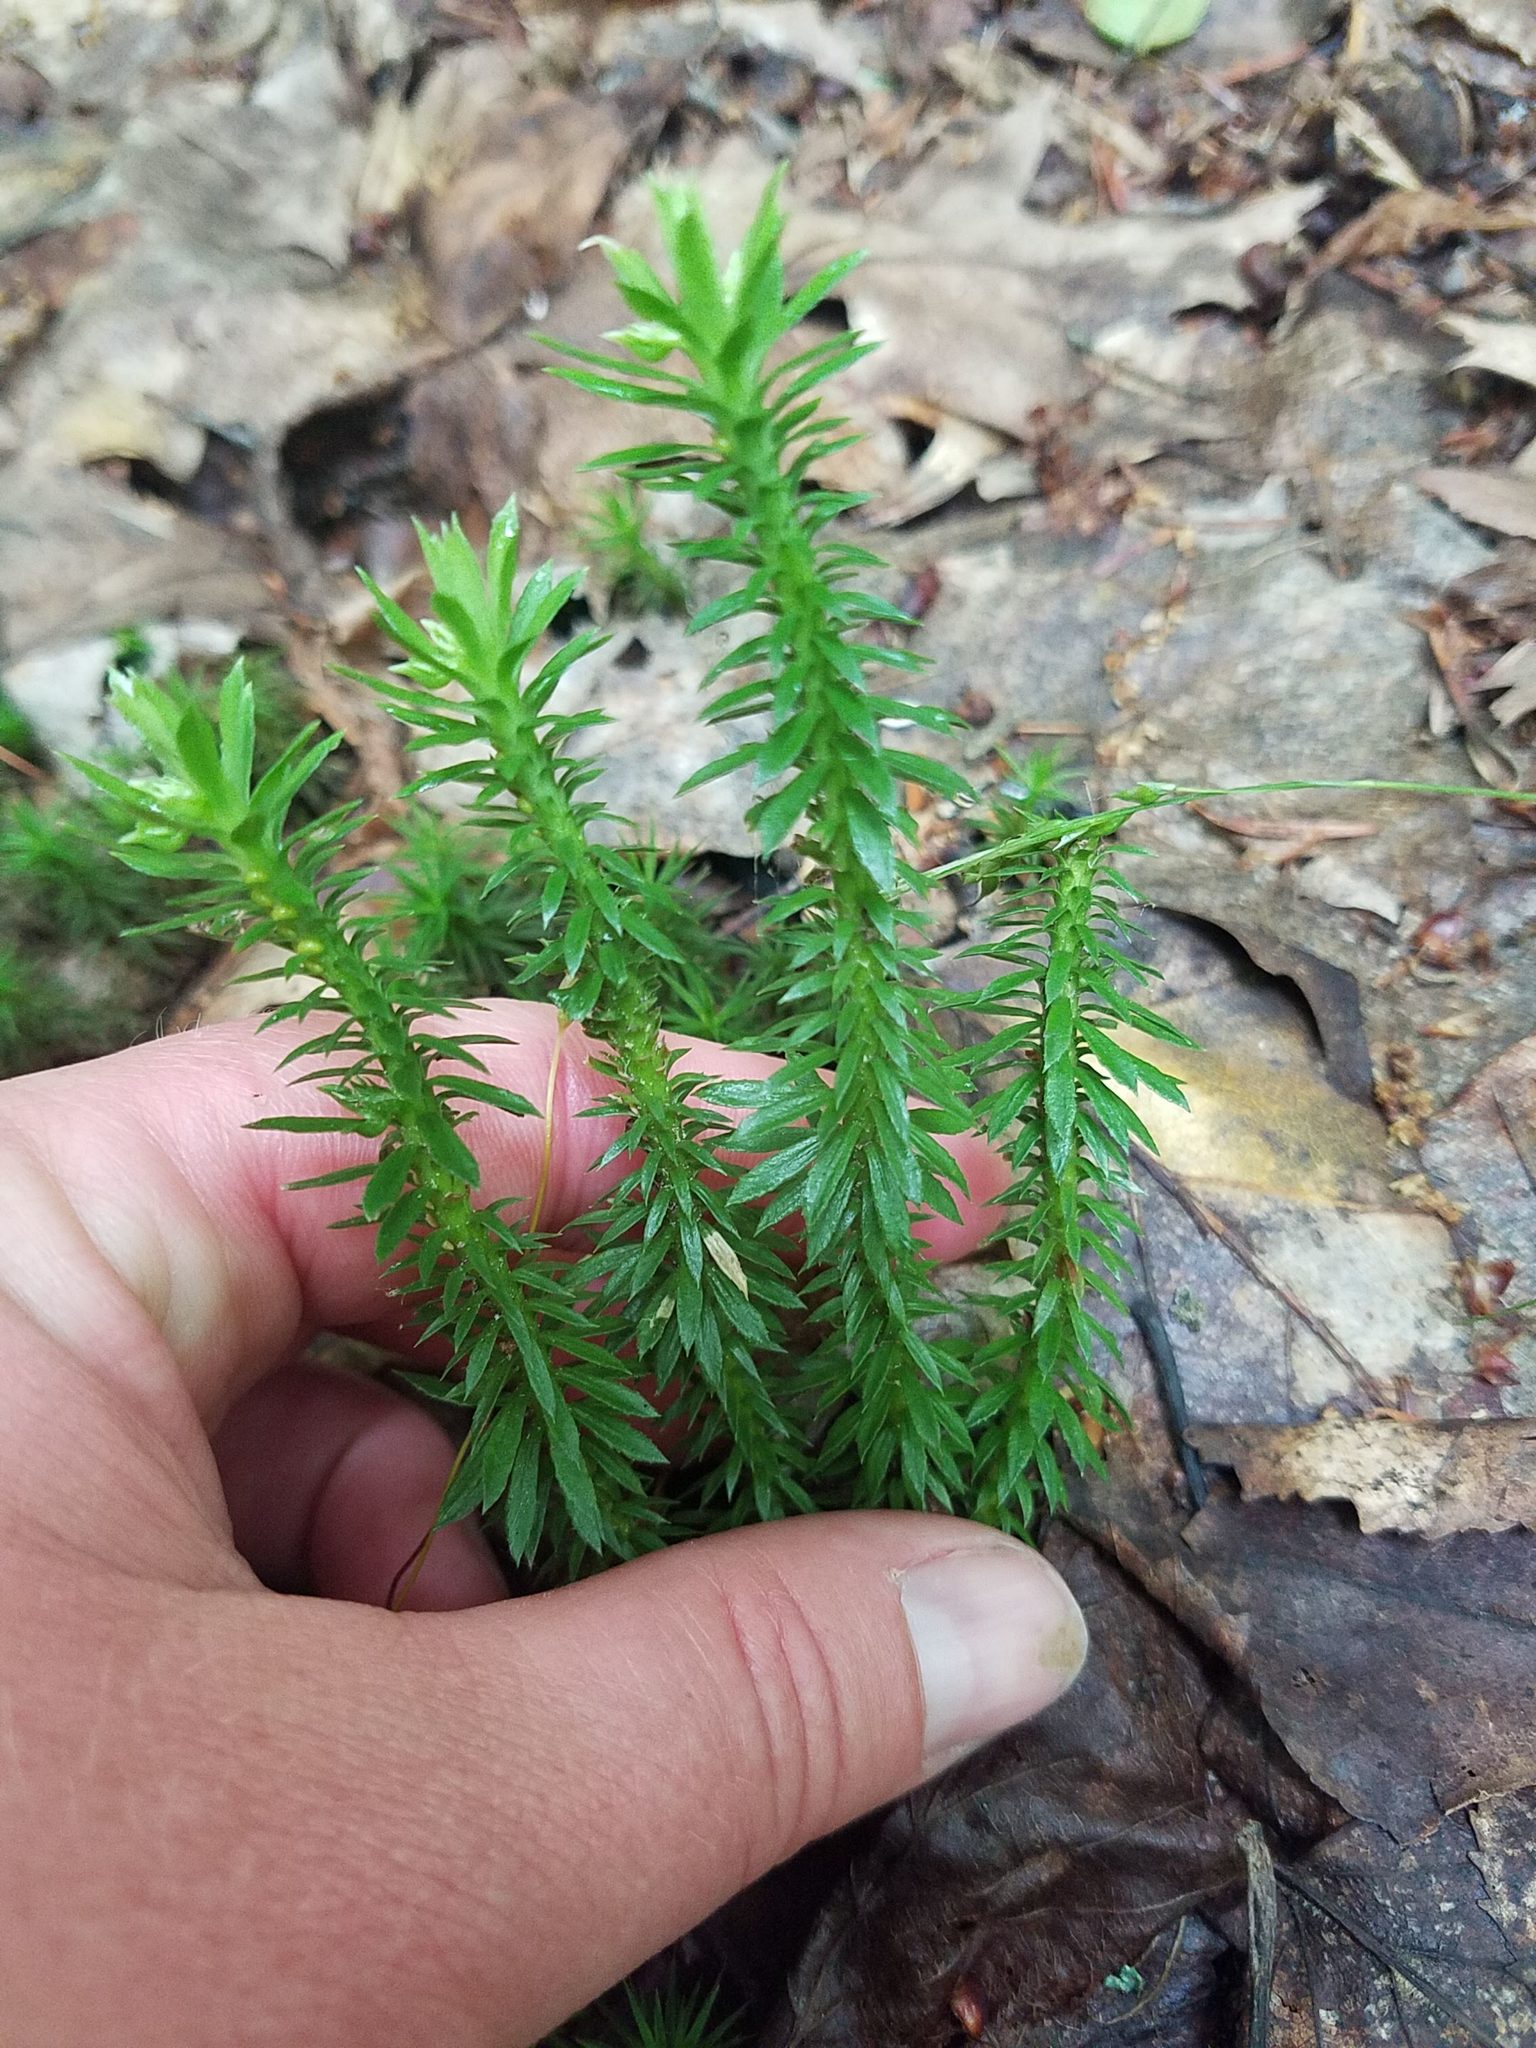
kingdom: Plantae
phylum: Tracheophyta
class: Lycopodiopsida
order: Lycopodiales
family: Lycopodiaceae
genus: Huperzia
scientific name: Huperzia lucidula
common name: Shining clubmoss
